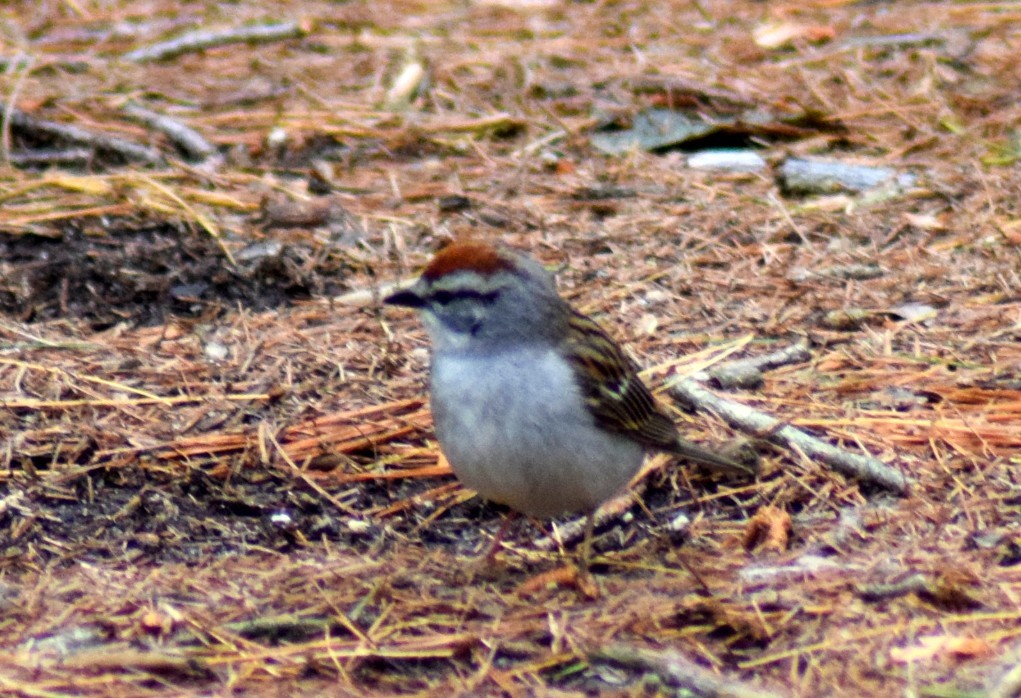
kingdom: Animalia
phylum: Chordata
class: Aves
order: Passeriformes
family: Passerellidae
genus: Spizella
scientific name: Spizella passerina
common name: Chipping sparrow
